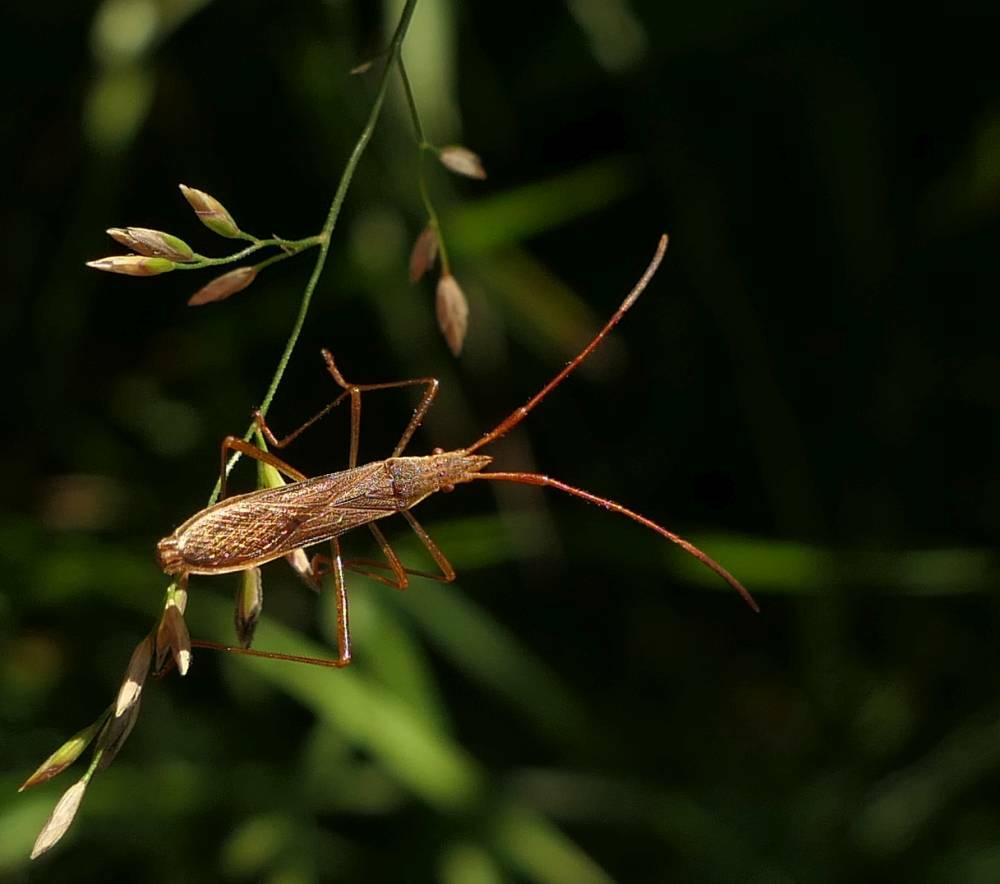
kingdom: Animalia
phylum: Arthropoda
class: Insecta
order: Hemiptera
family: Alydidae
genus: Protenor
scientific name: Protenor belfragei
